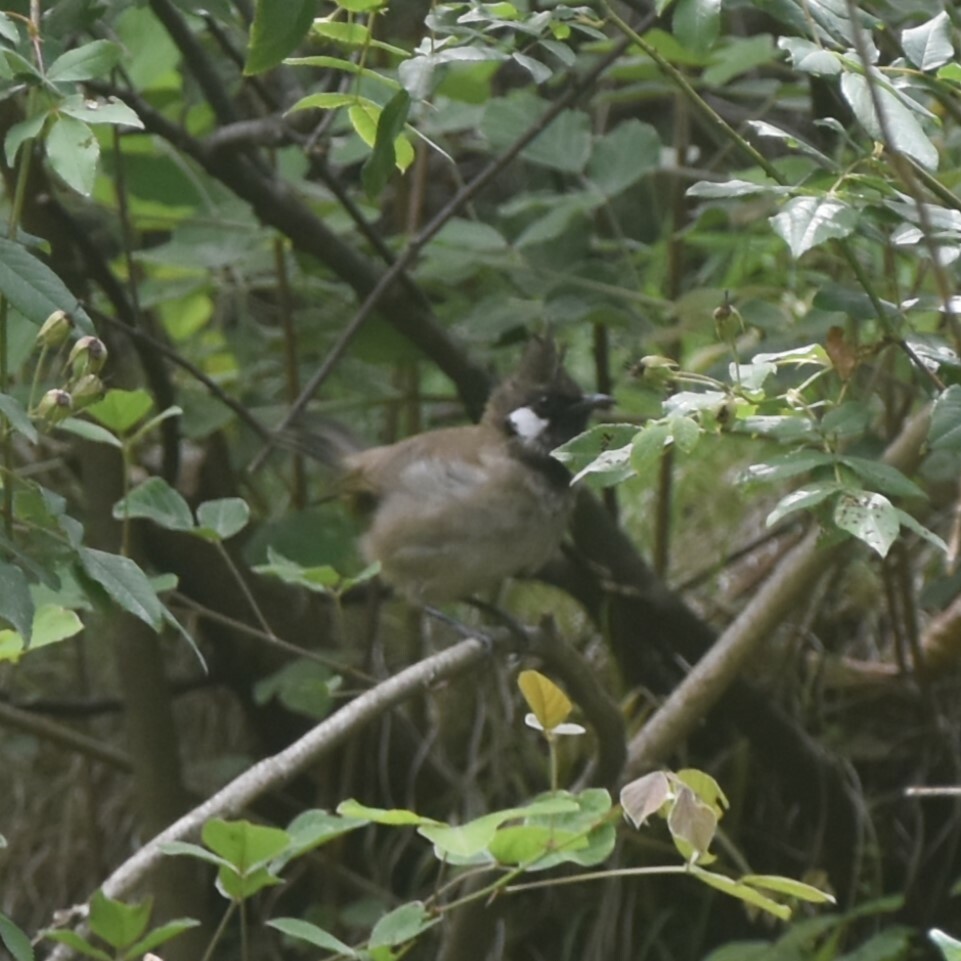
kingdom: Animalia
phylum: Chordata
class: Aves
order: Passeriformes
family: Pycnonotidae
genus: Pycnonotus
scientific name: Pycnonotus leucogenys
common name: Himalayan bulbul
